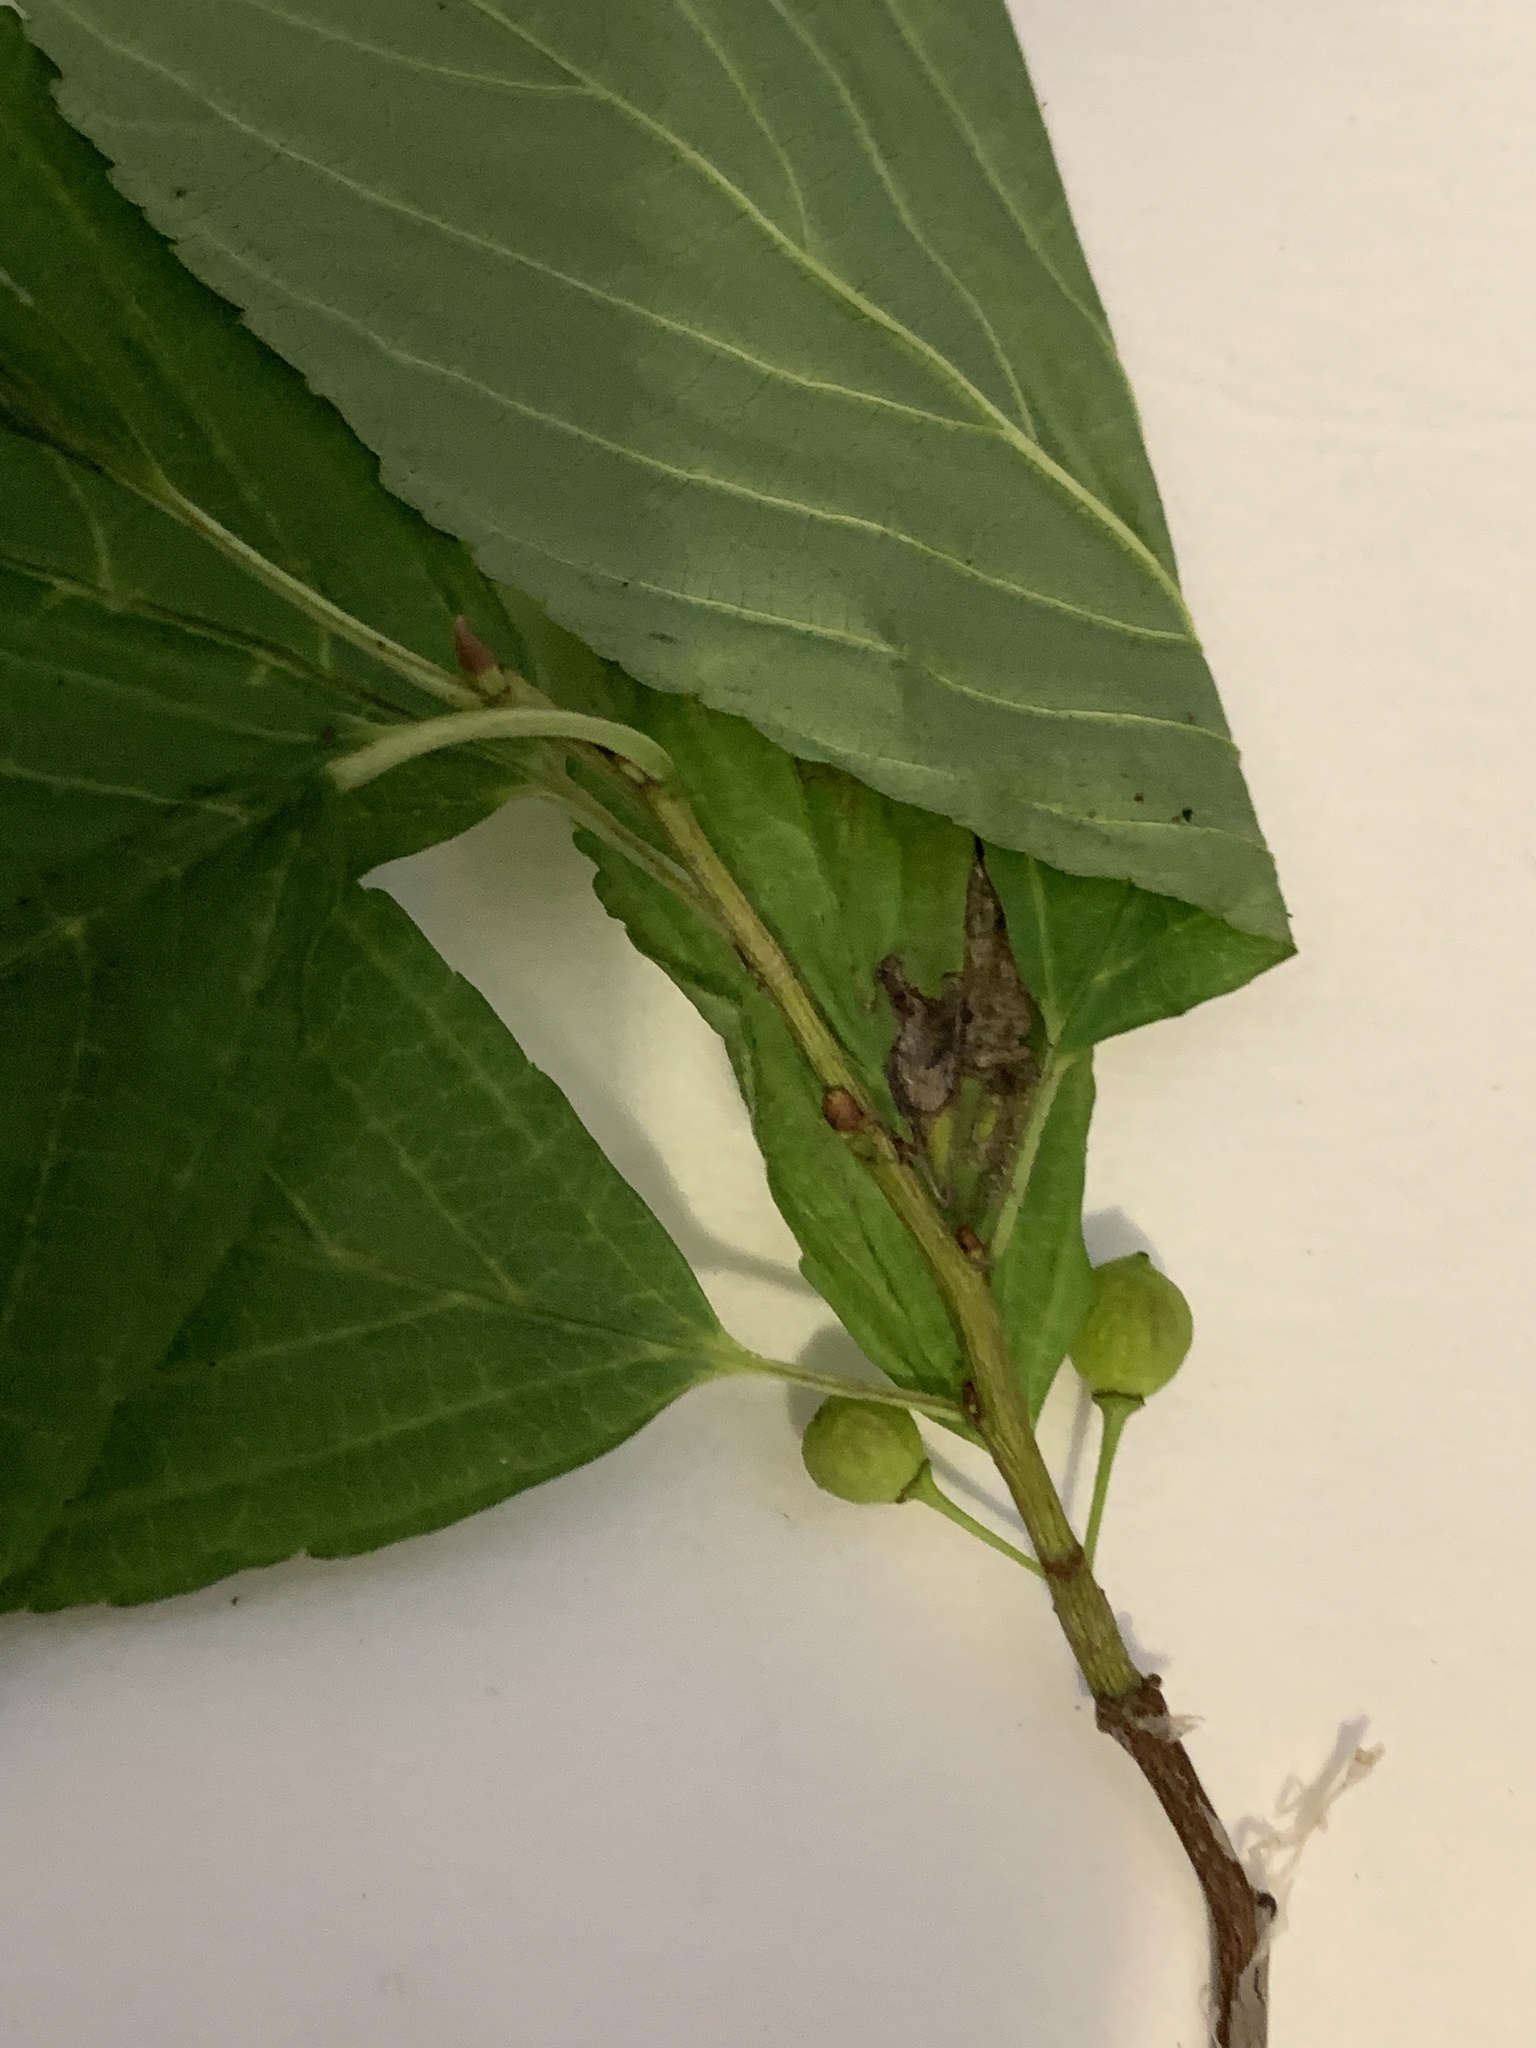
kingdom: Plantae
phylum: Tracheophyta
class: Magnoliopsida
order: Rosales
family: Rhamnaceae
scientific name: Rhamnaceae
